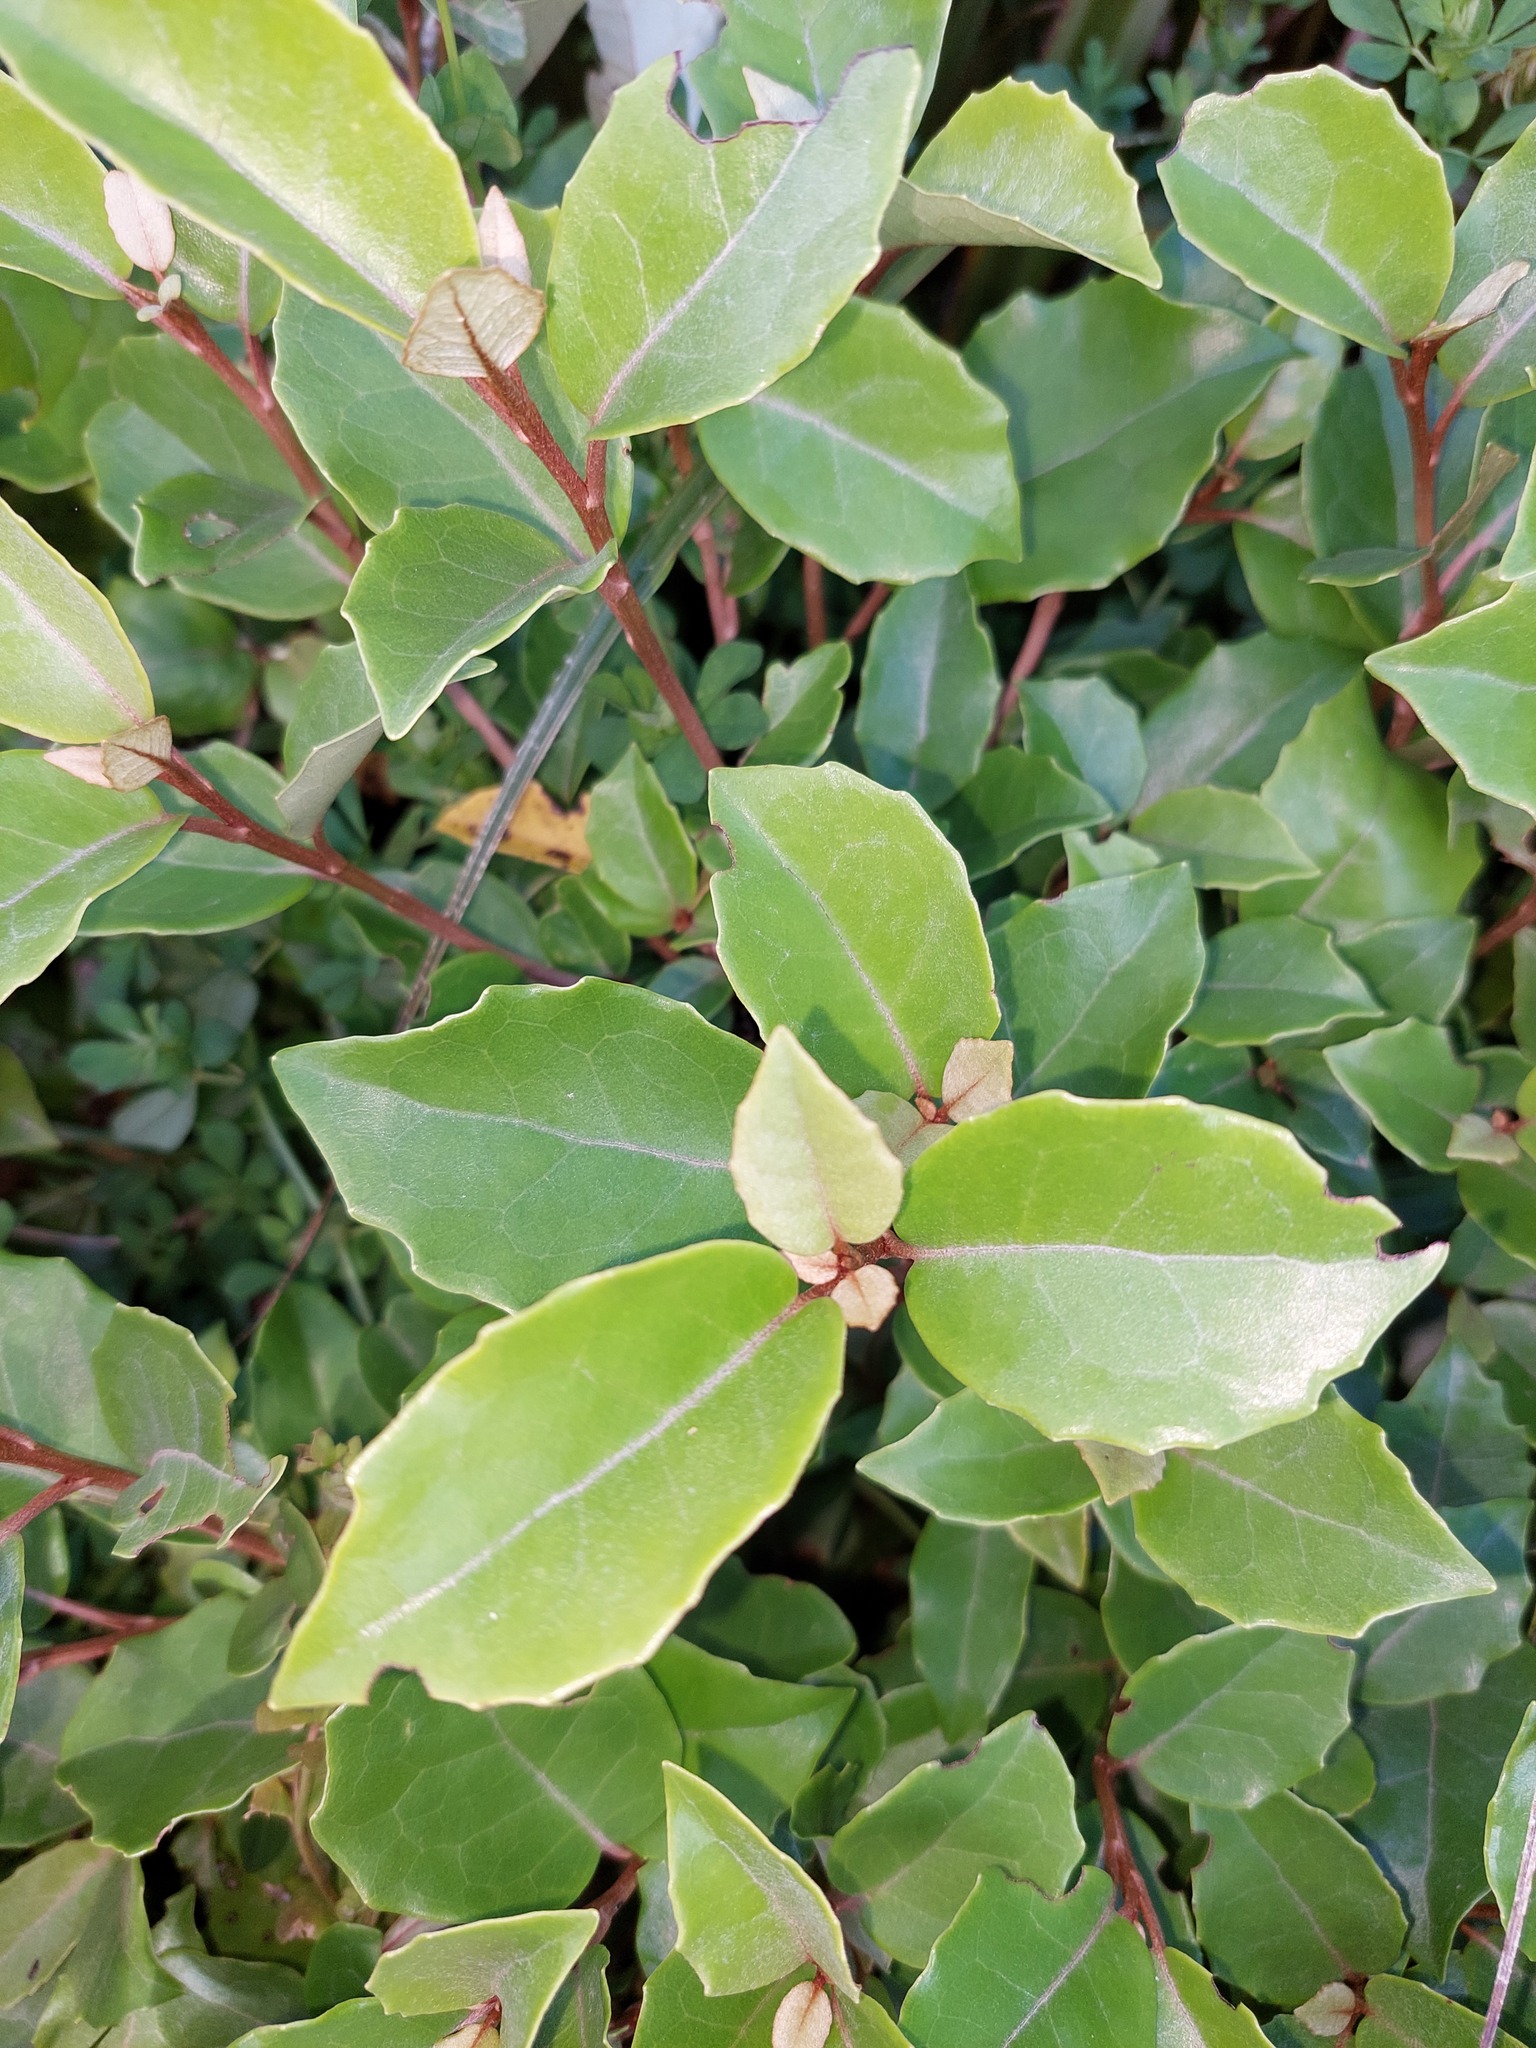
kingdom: Plantae
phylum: Tracheophyta
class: Magnoliopsida
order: Asterales
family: Asteraceae
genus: Olearia
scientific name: Olearia arborescens
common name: Glossy tree daisy
